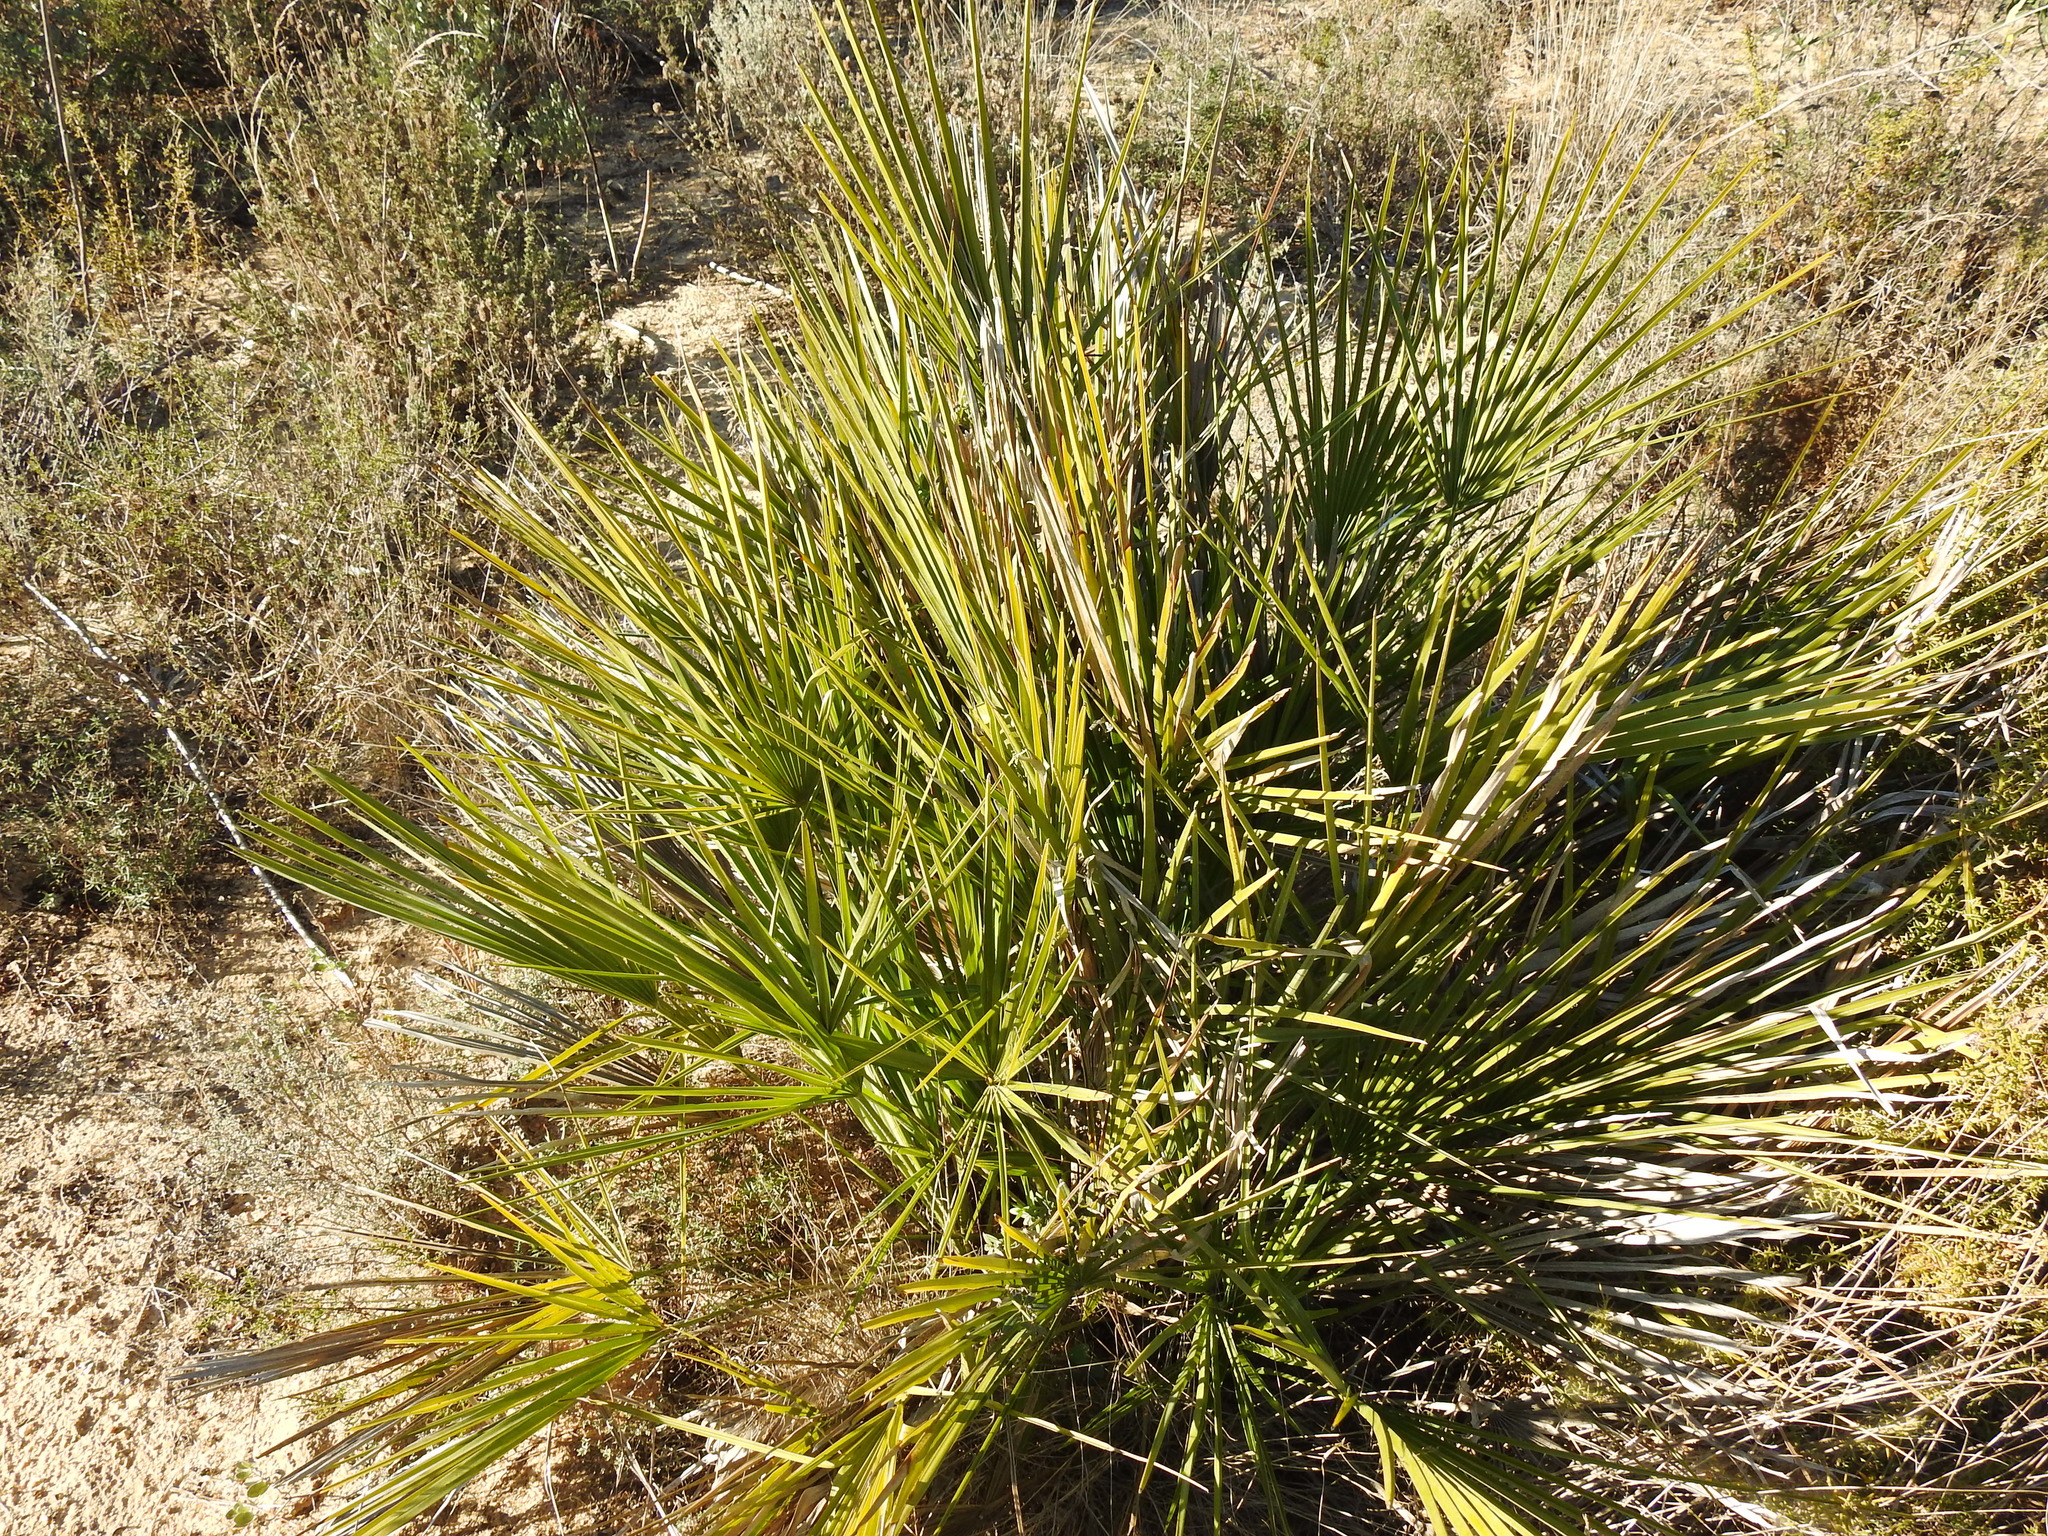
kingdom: Plantae
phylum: Tracheophyta
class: Liliopsida
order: Arecales
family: Arecaceae
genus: Chamaerops
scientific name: Chamaerops humilis
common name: Dwarf fan palm
